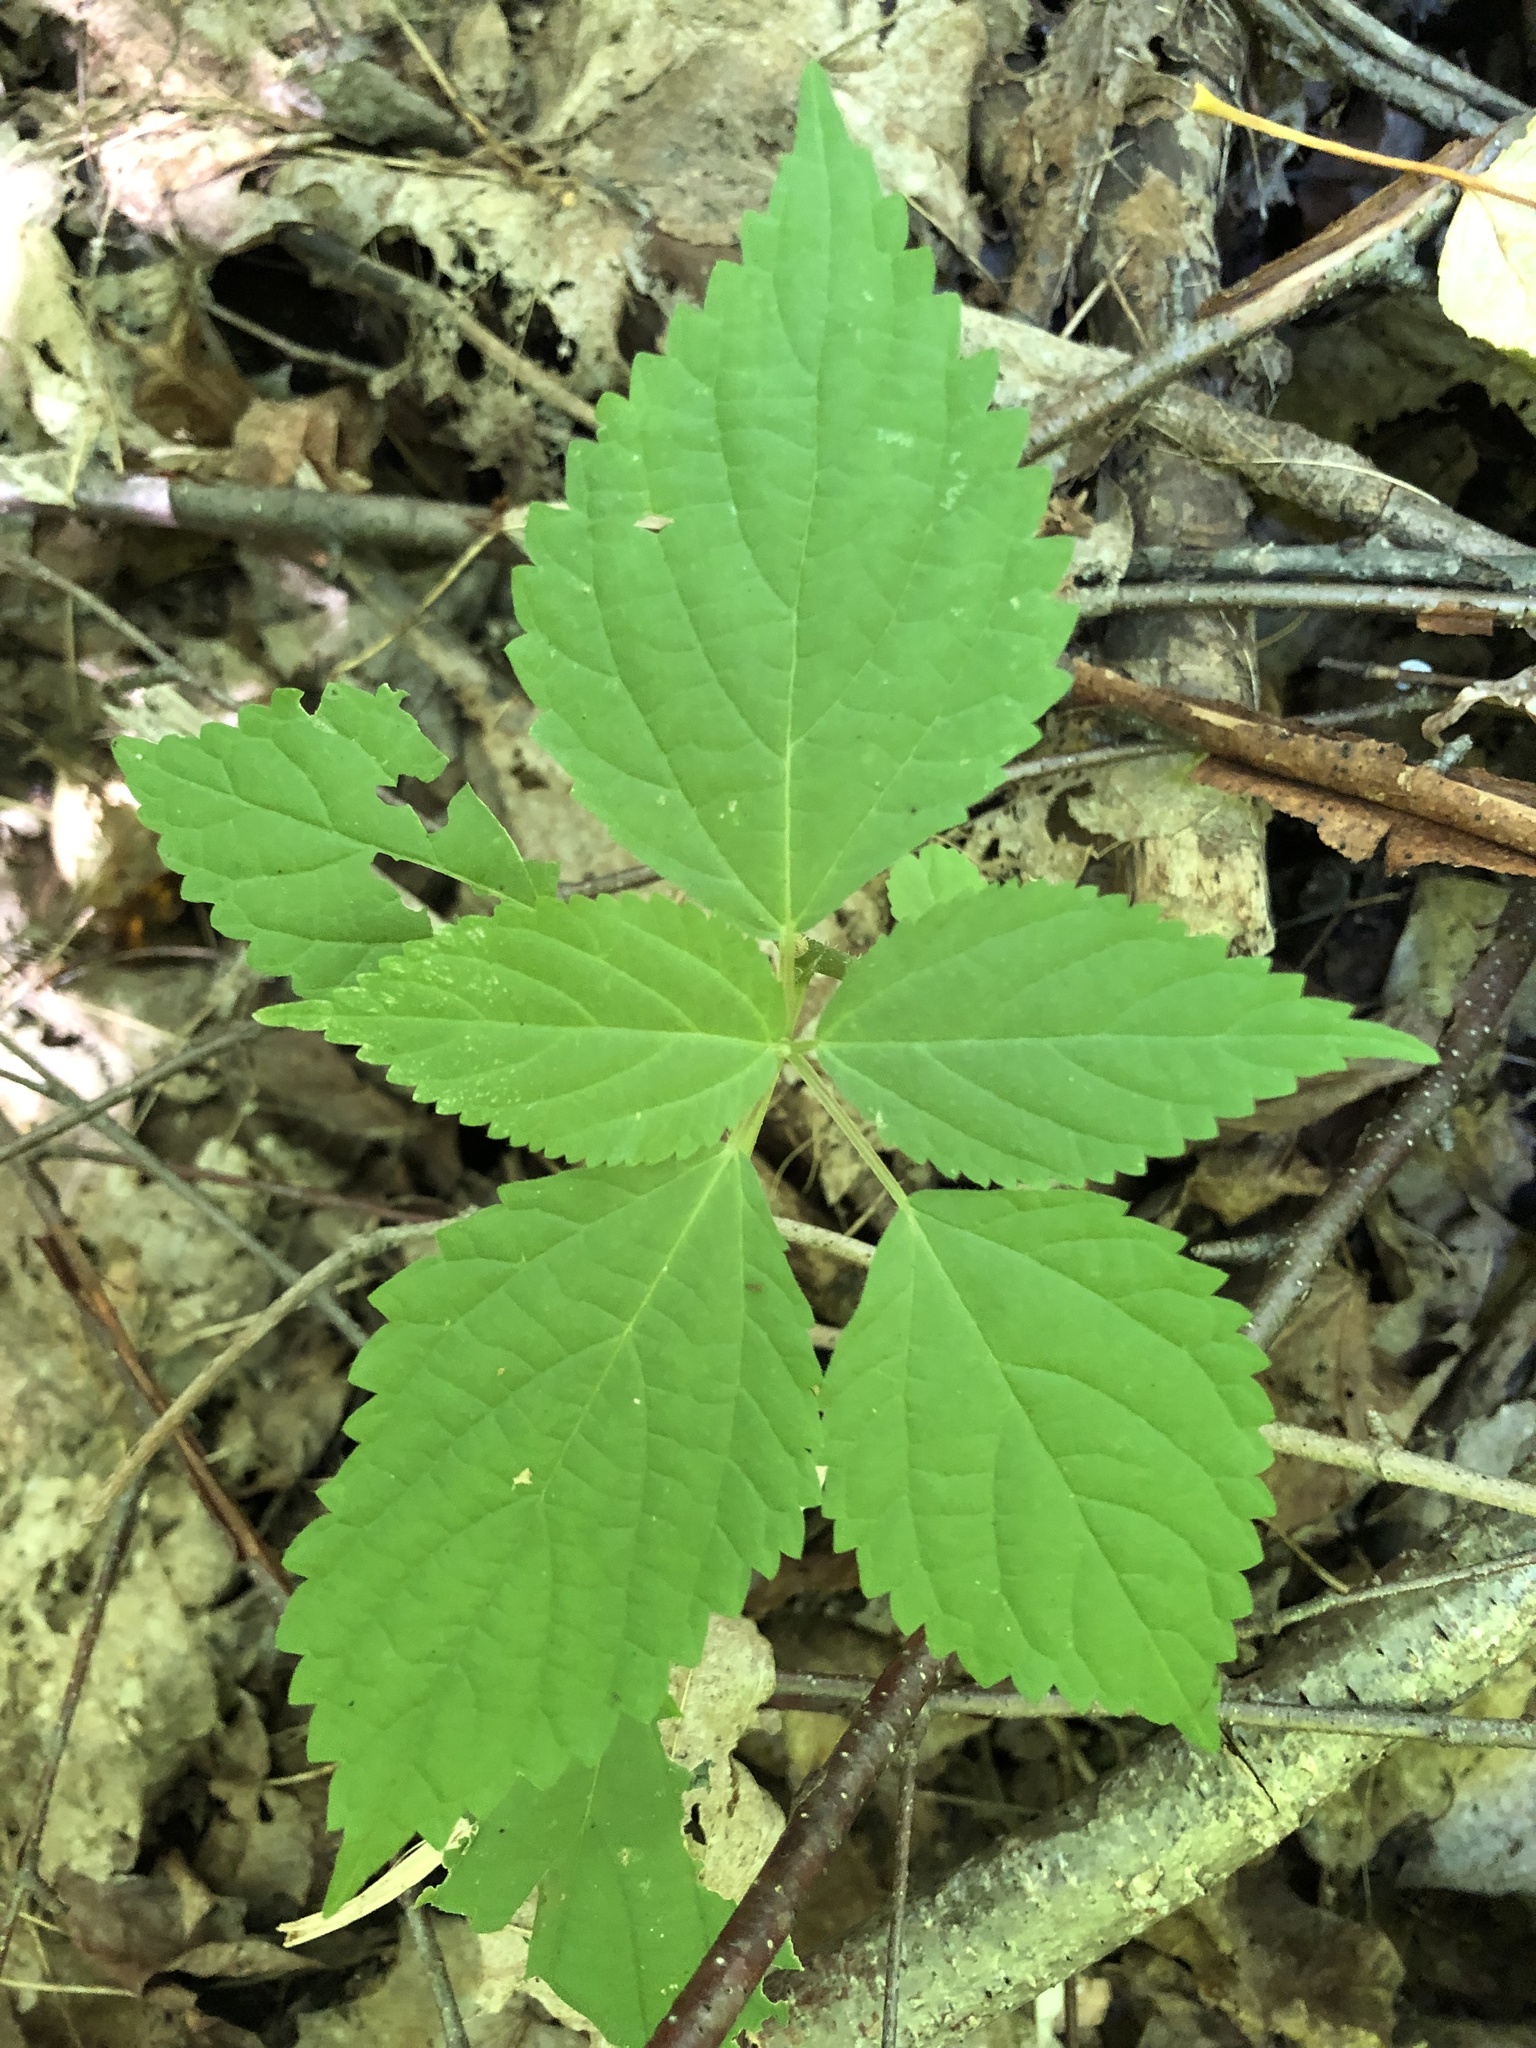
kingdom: Plantae
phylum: Tracheophyta
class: Magnoliopsida
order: Rosales
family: Urticaceae
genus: Laportea
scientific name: Laportea canadensis
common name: Canada nettle
